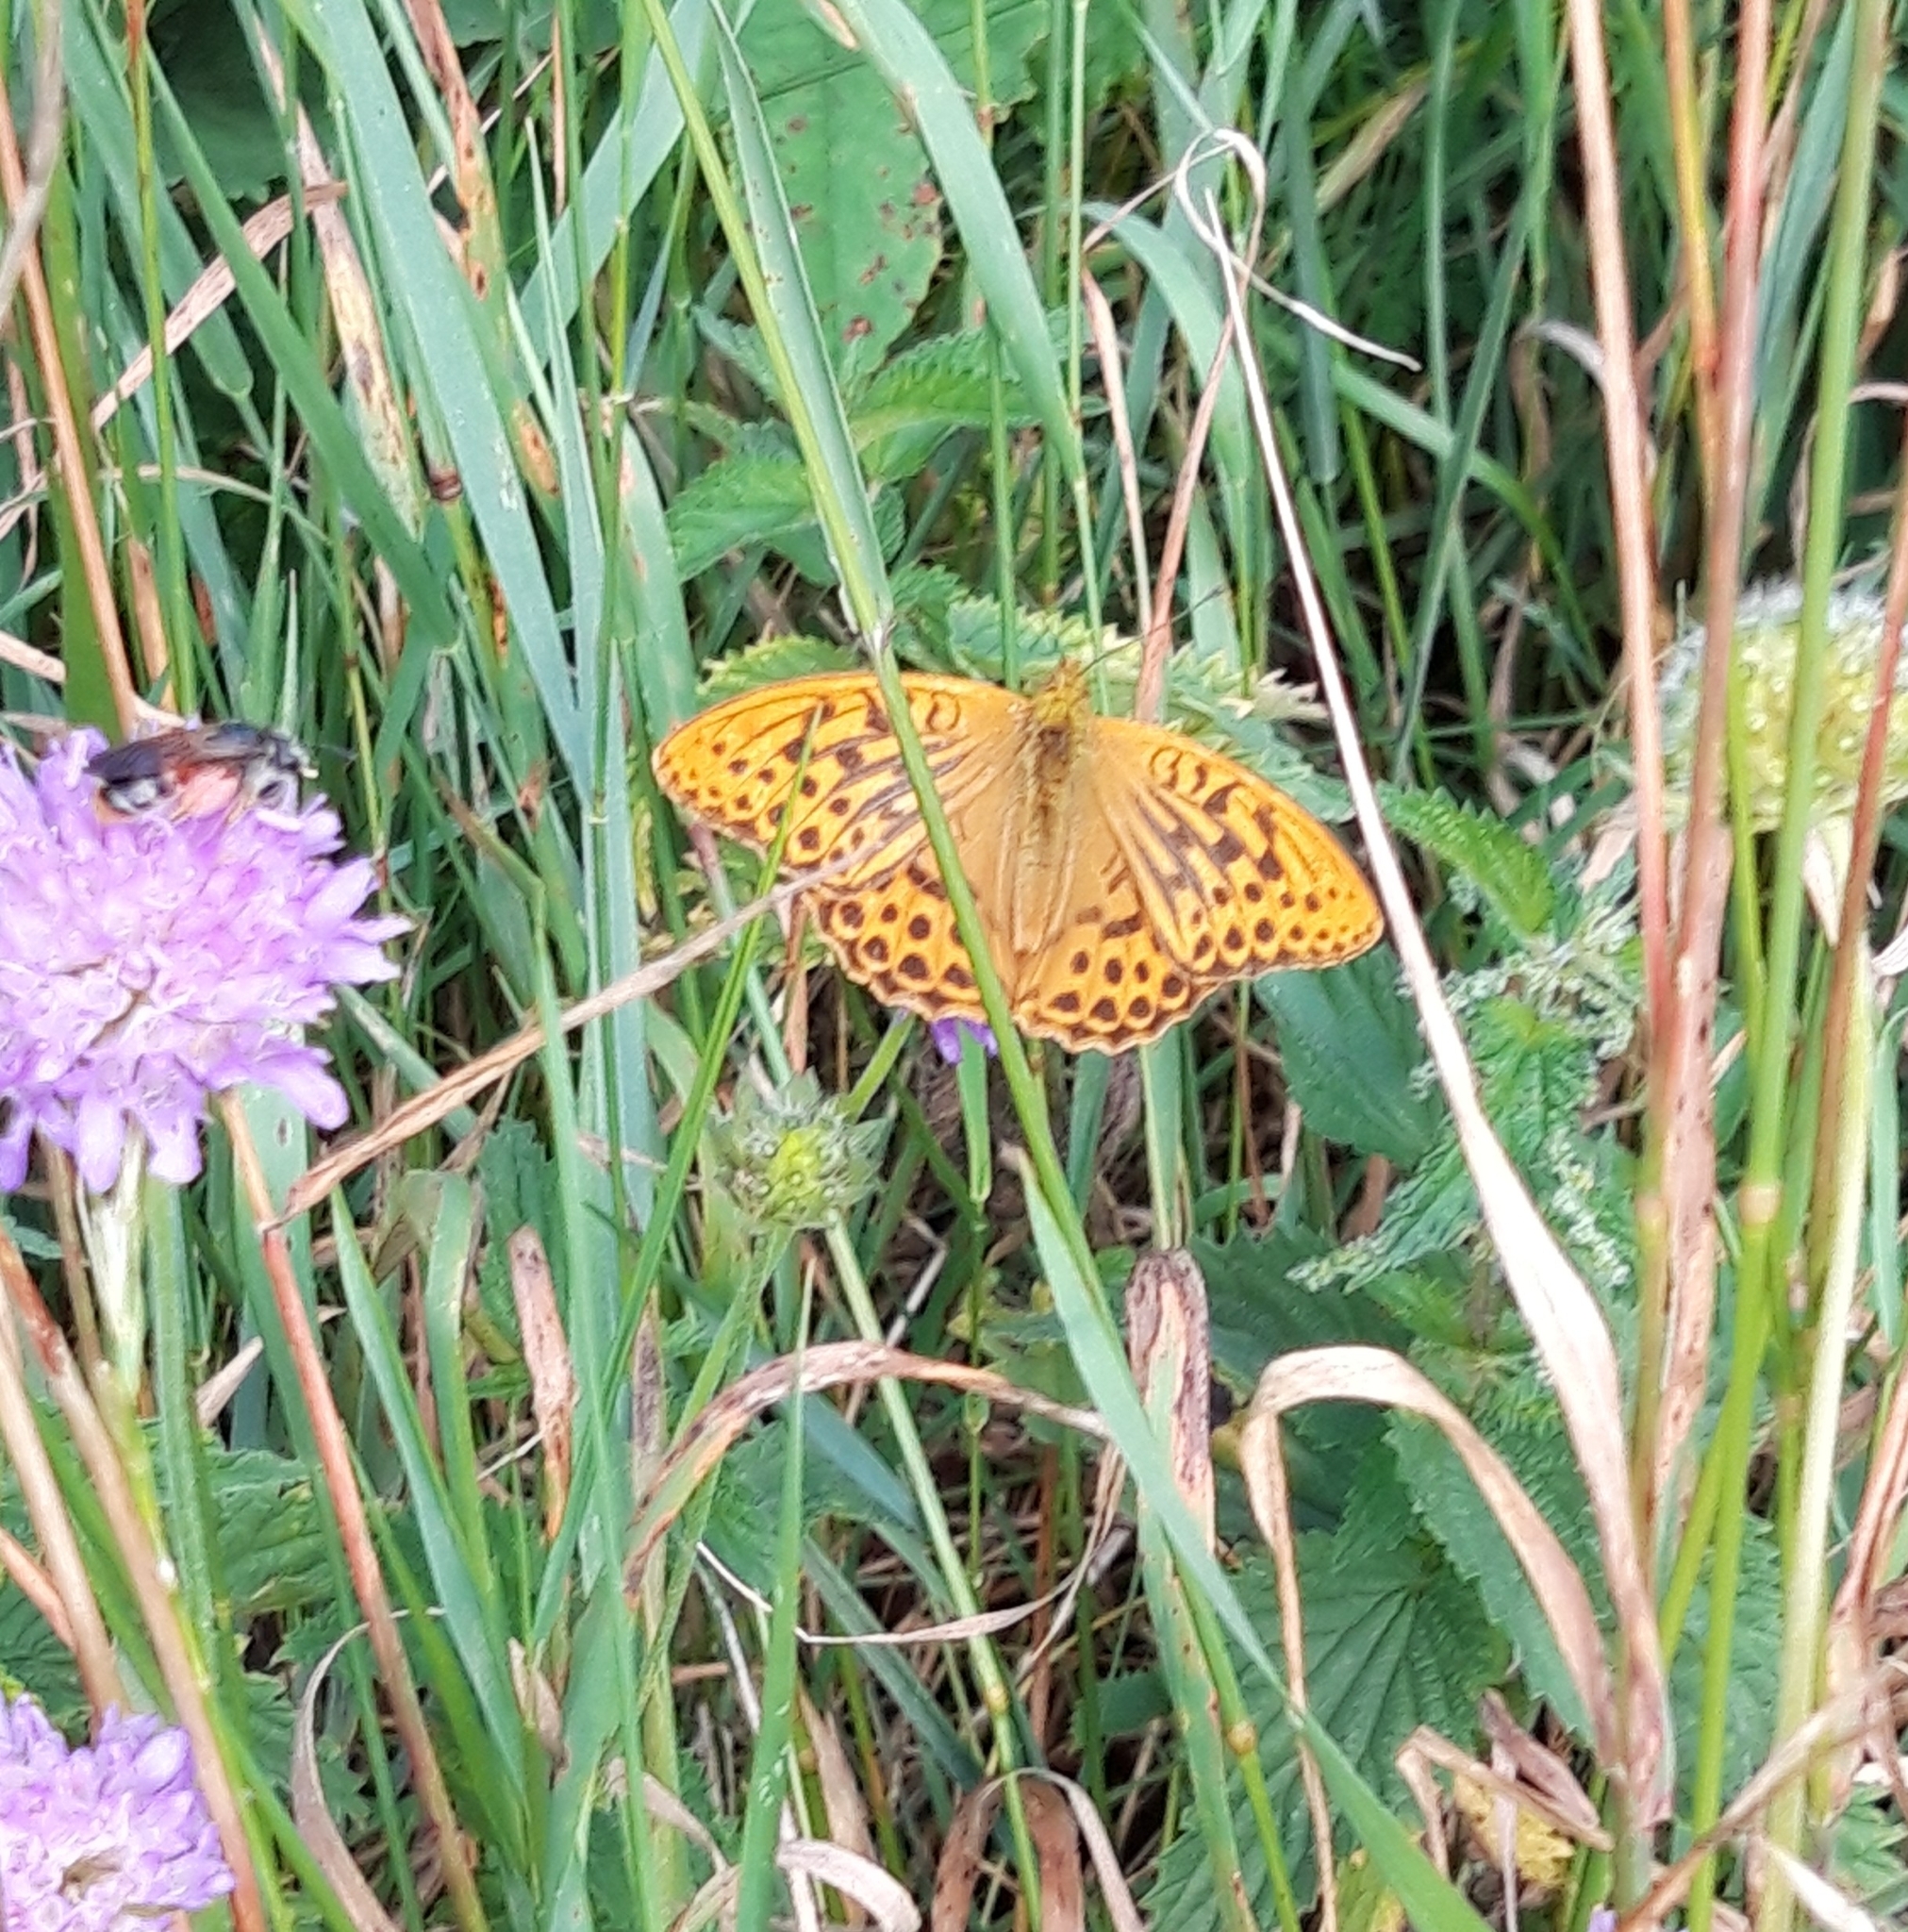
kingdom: Animalia
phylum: Arthropoda
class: Insecta
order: Lepidoptera
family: Nymphalidae
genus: Argynnis
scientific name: Argynnis paphia
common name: Silver-washed fritillary
